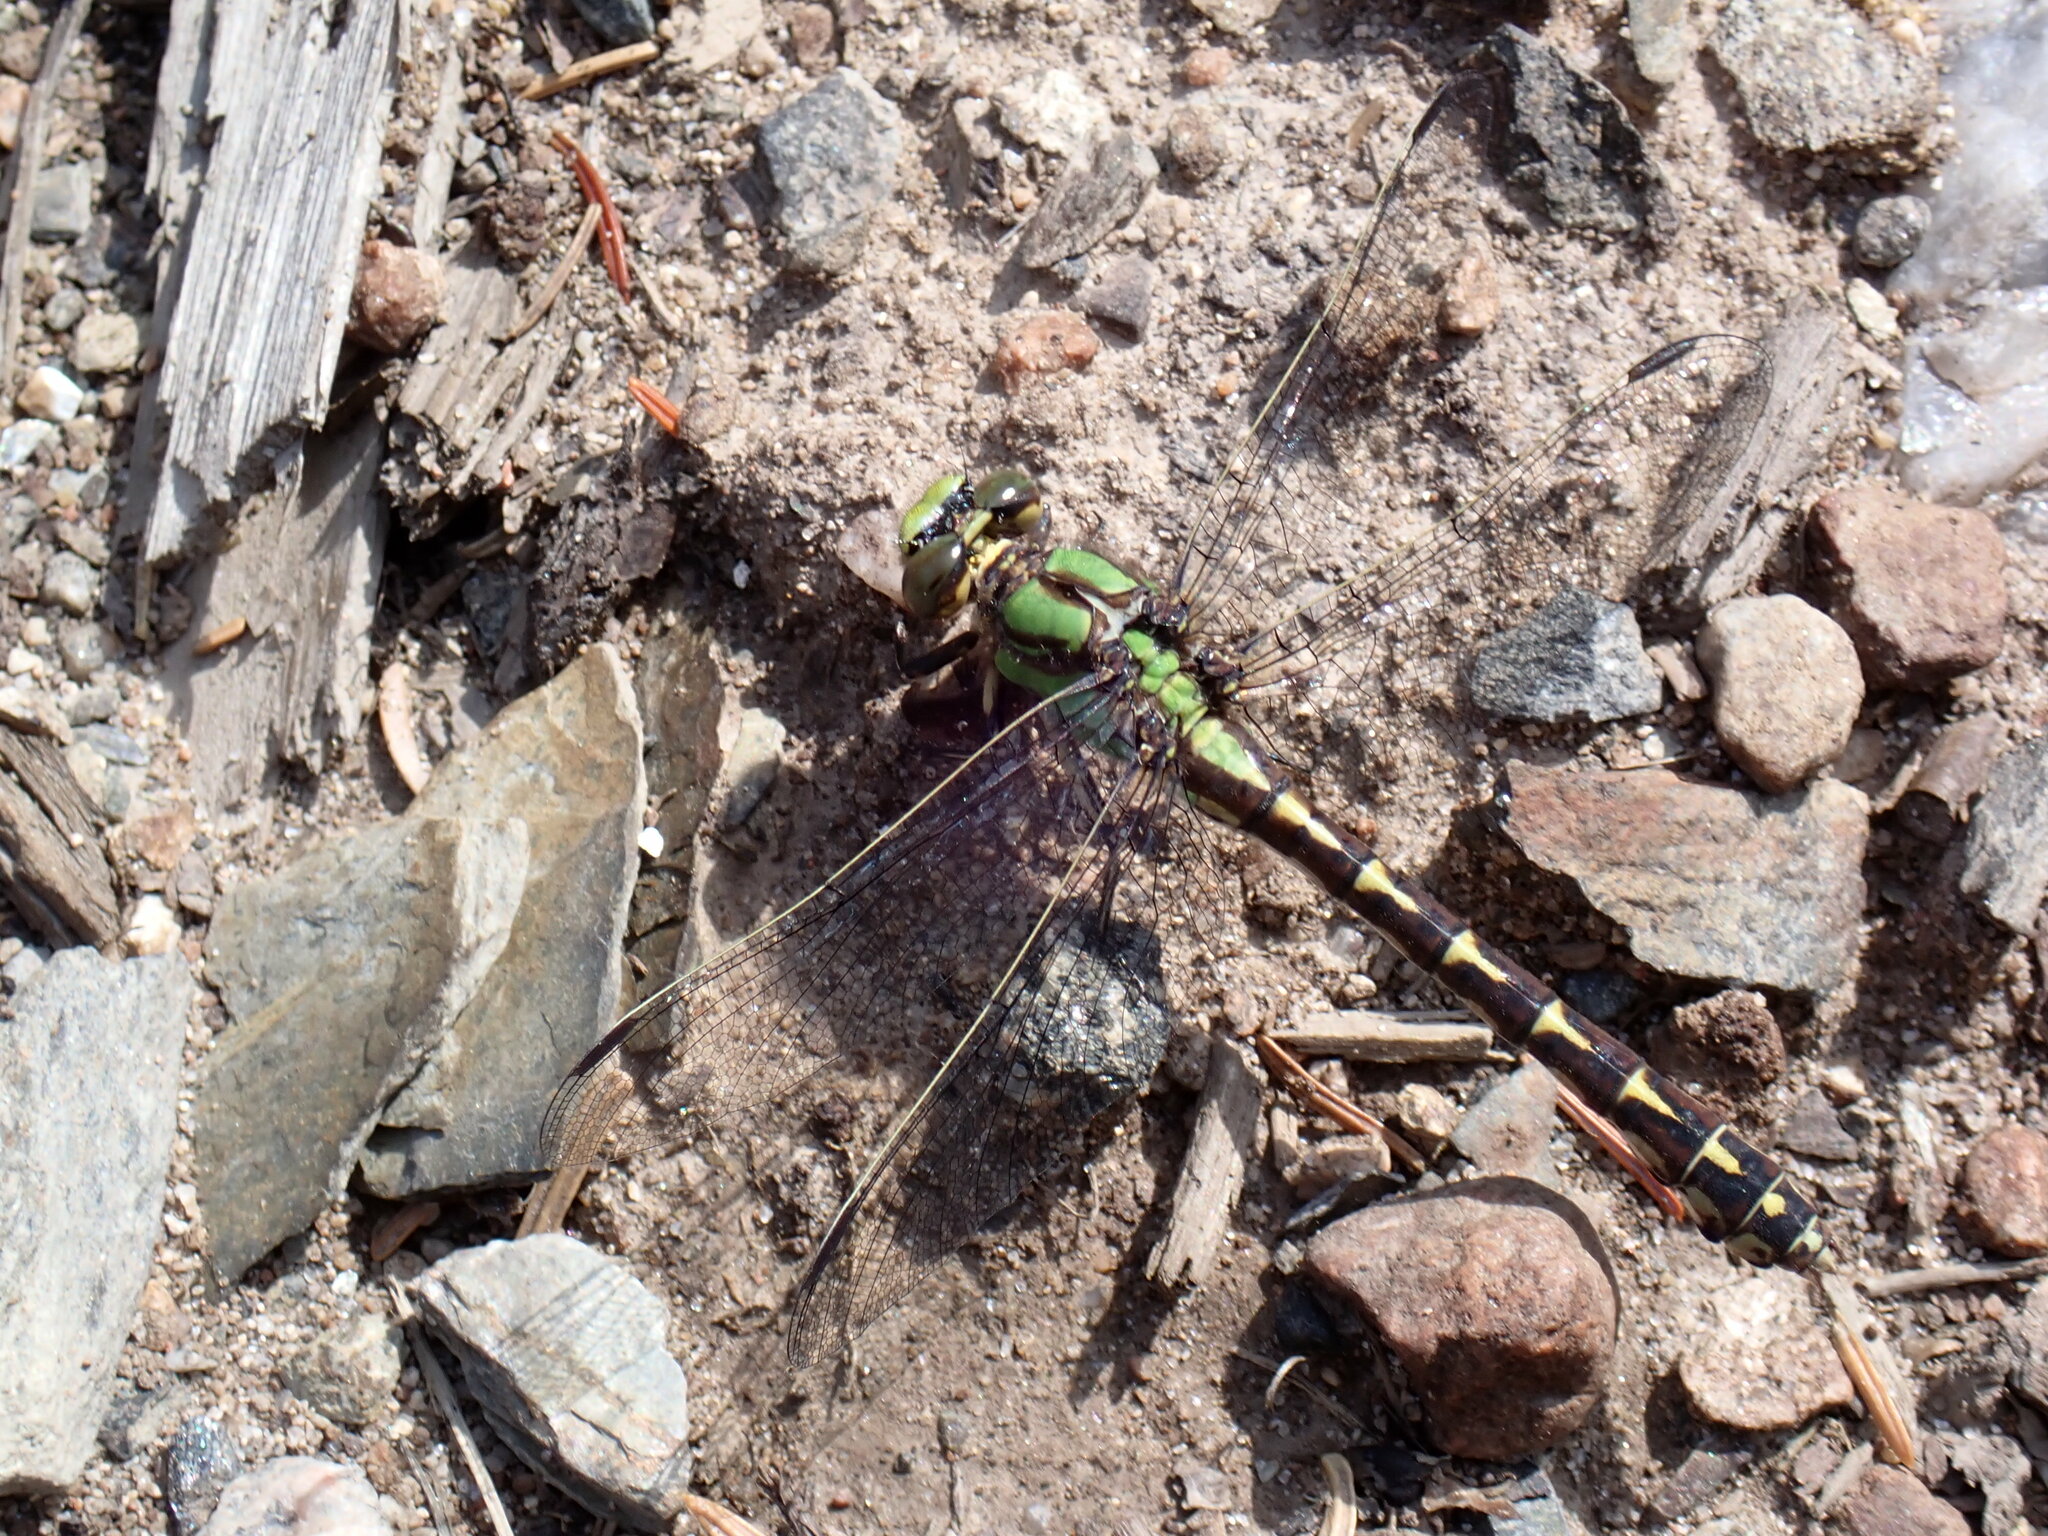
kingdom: Animalia
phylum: Arthropoda
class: Insecta
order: Odonata
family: Gomphidae
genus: Ophiogomphus
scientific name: Ophiogomphus colubrinus
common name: Boreal snaketail
